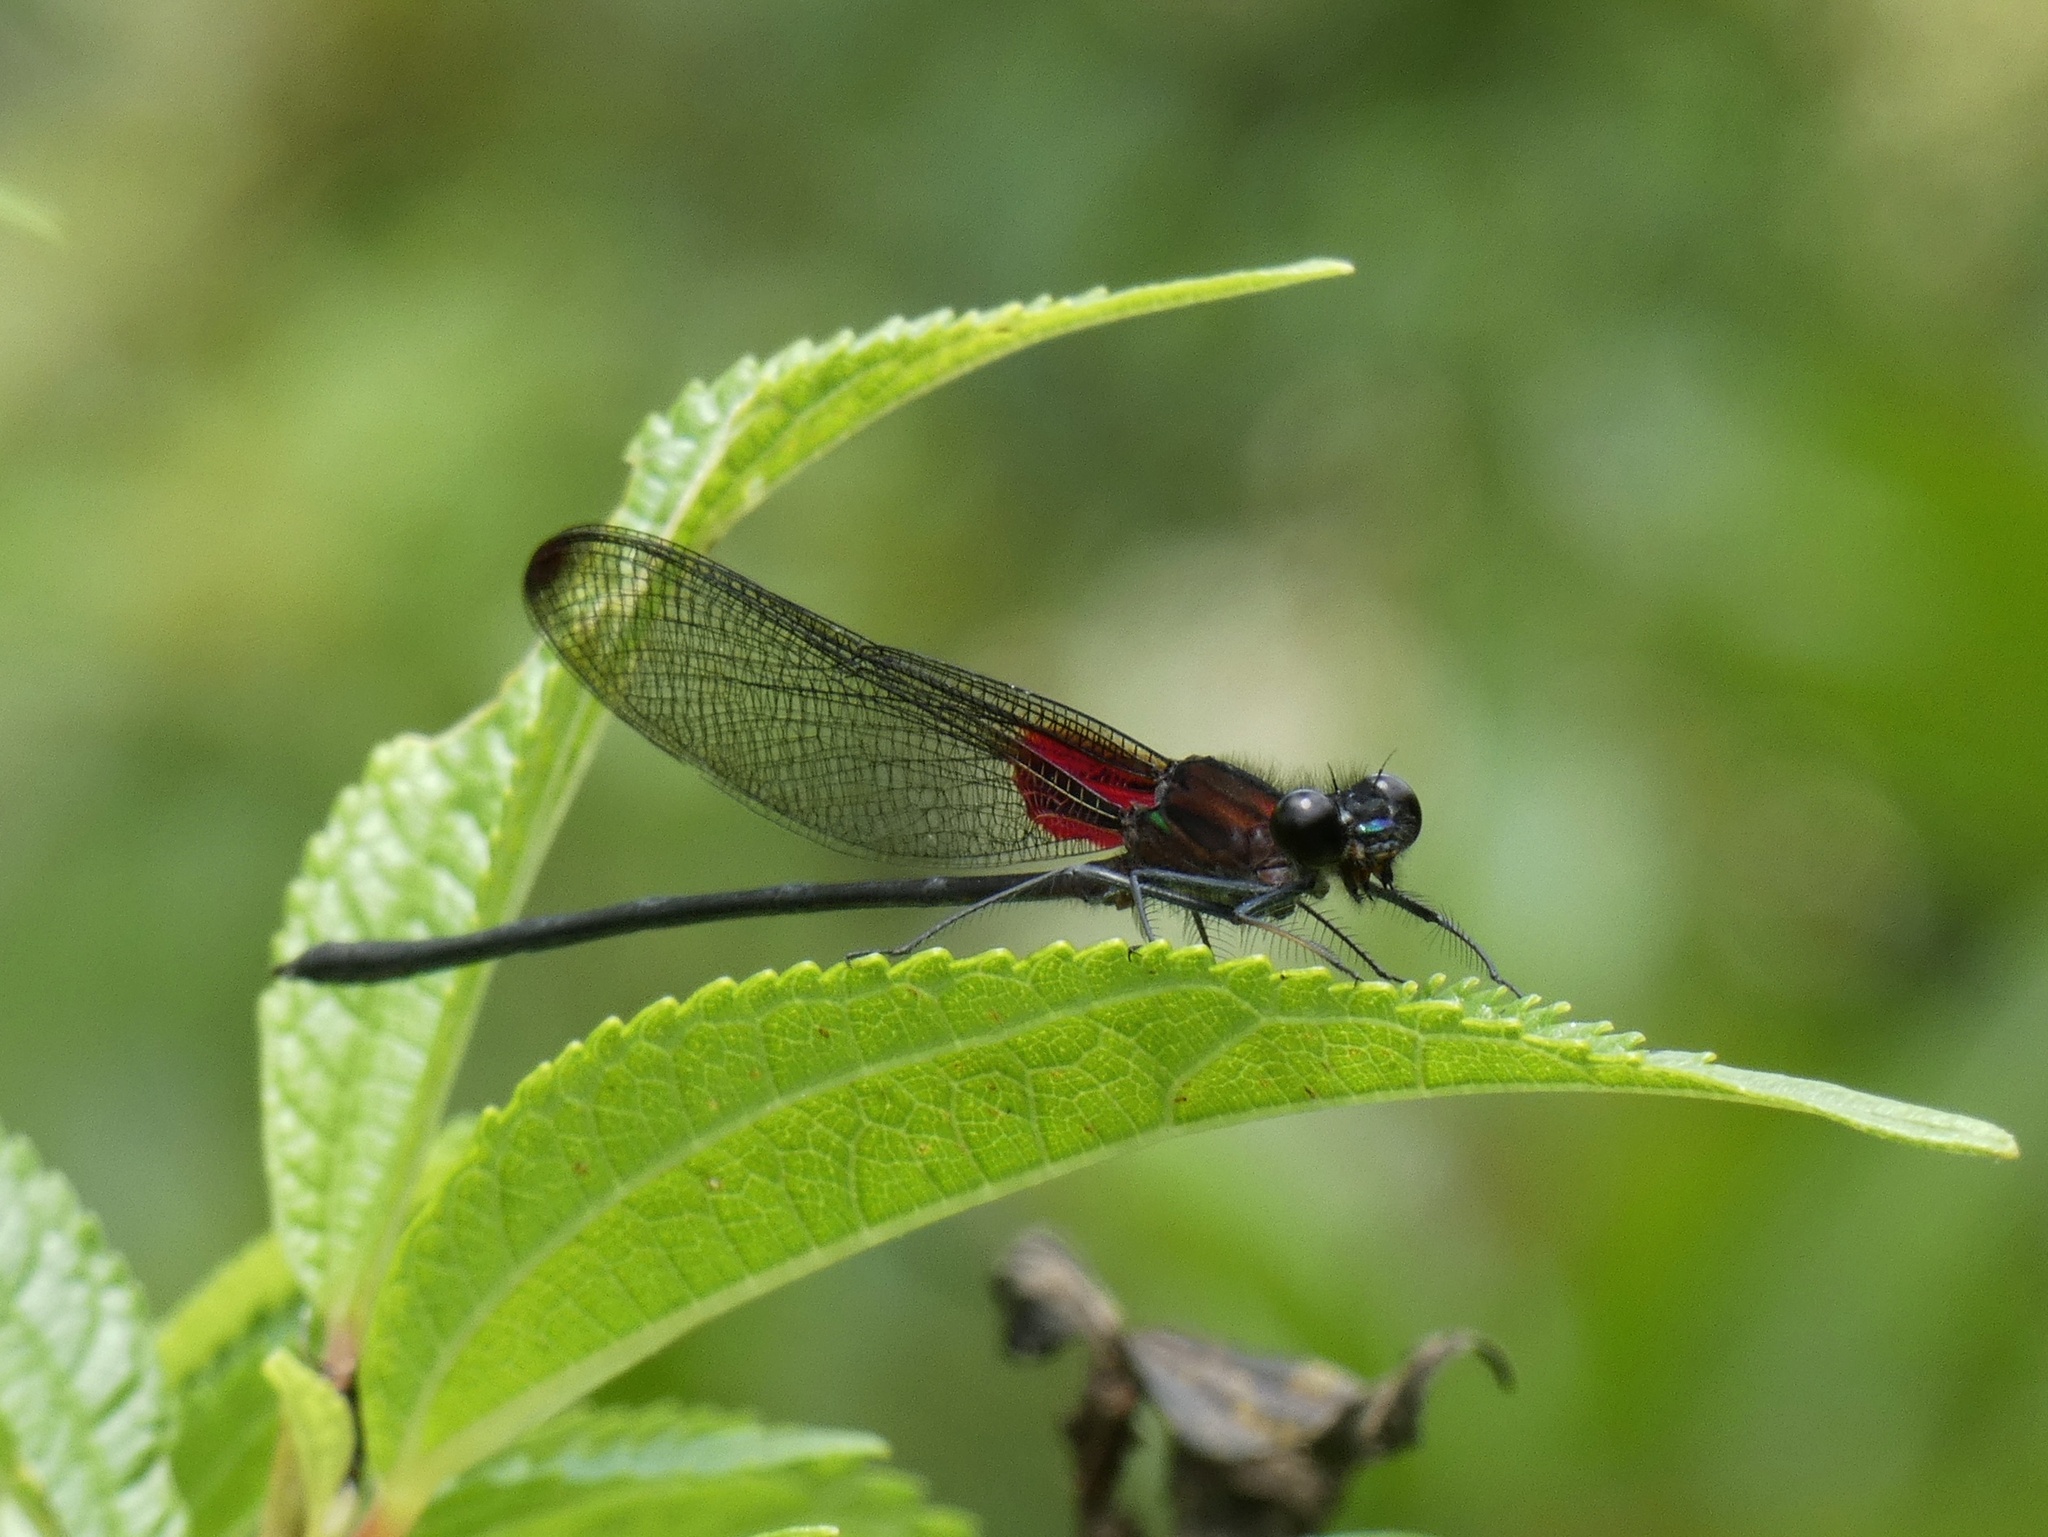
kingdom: Animalia
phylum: Arthropoda
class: Insecta
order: Odonata
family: Calopterygidae
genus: Hetaerina
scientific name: Hetaerina cruentata
